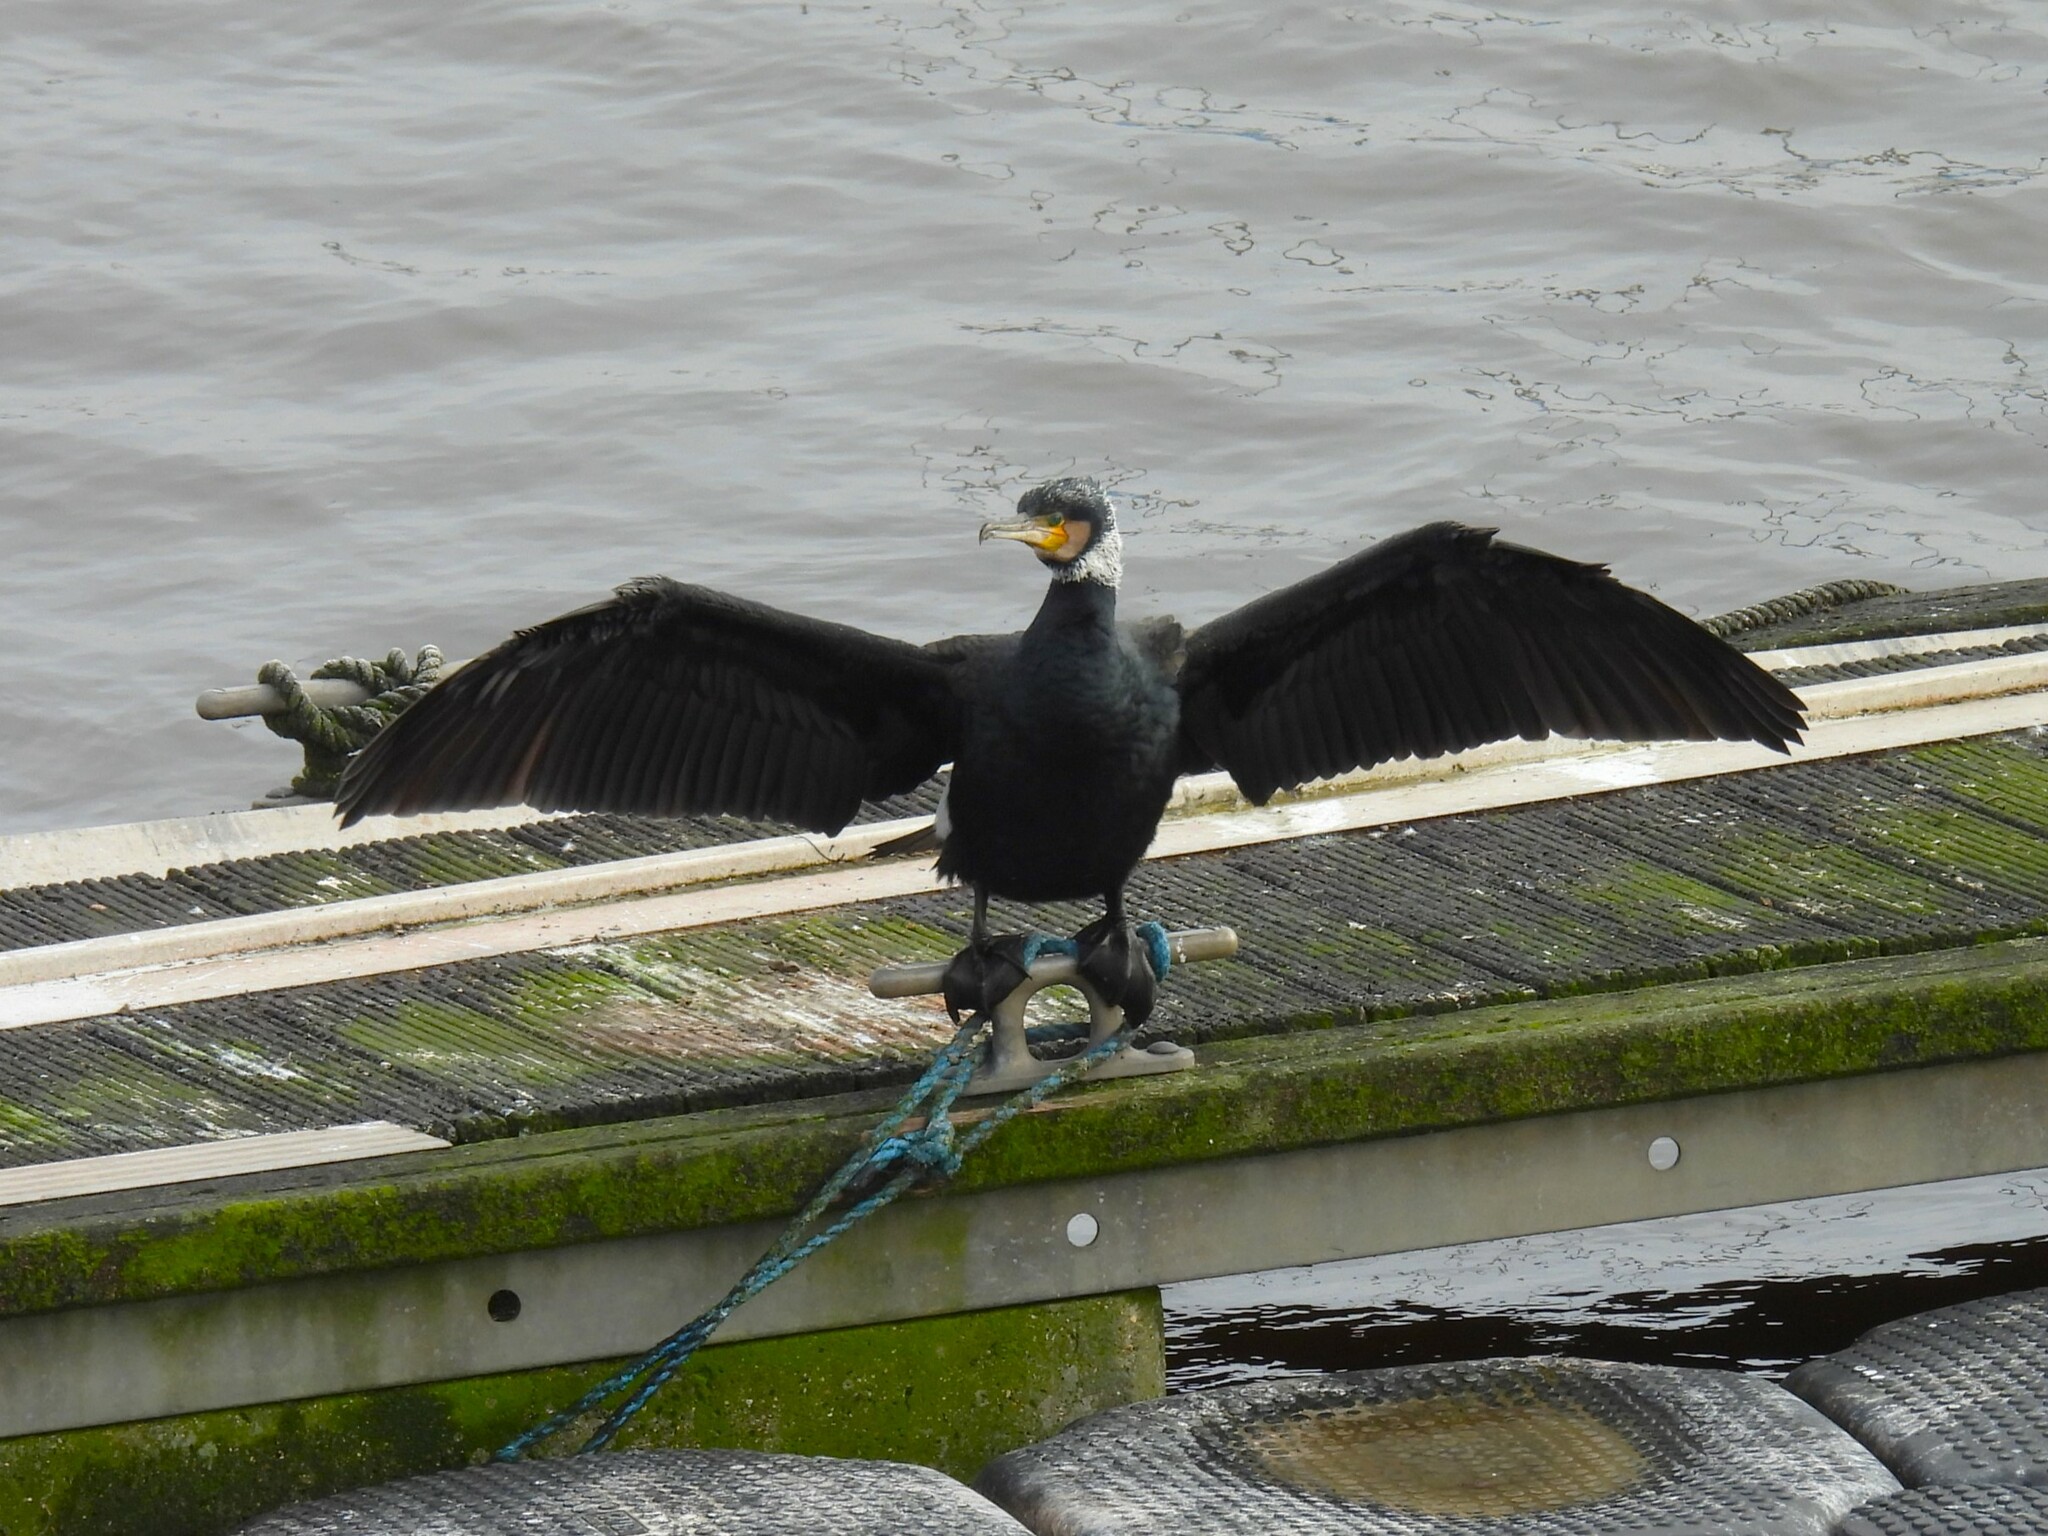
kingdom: Animalia
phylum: Chordata
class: Aves
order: Suliformes
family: Phalacrocoracidae
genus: Phalacrocorax
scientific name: Phalacrocorax carbo
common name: Great cormorant
